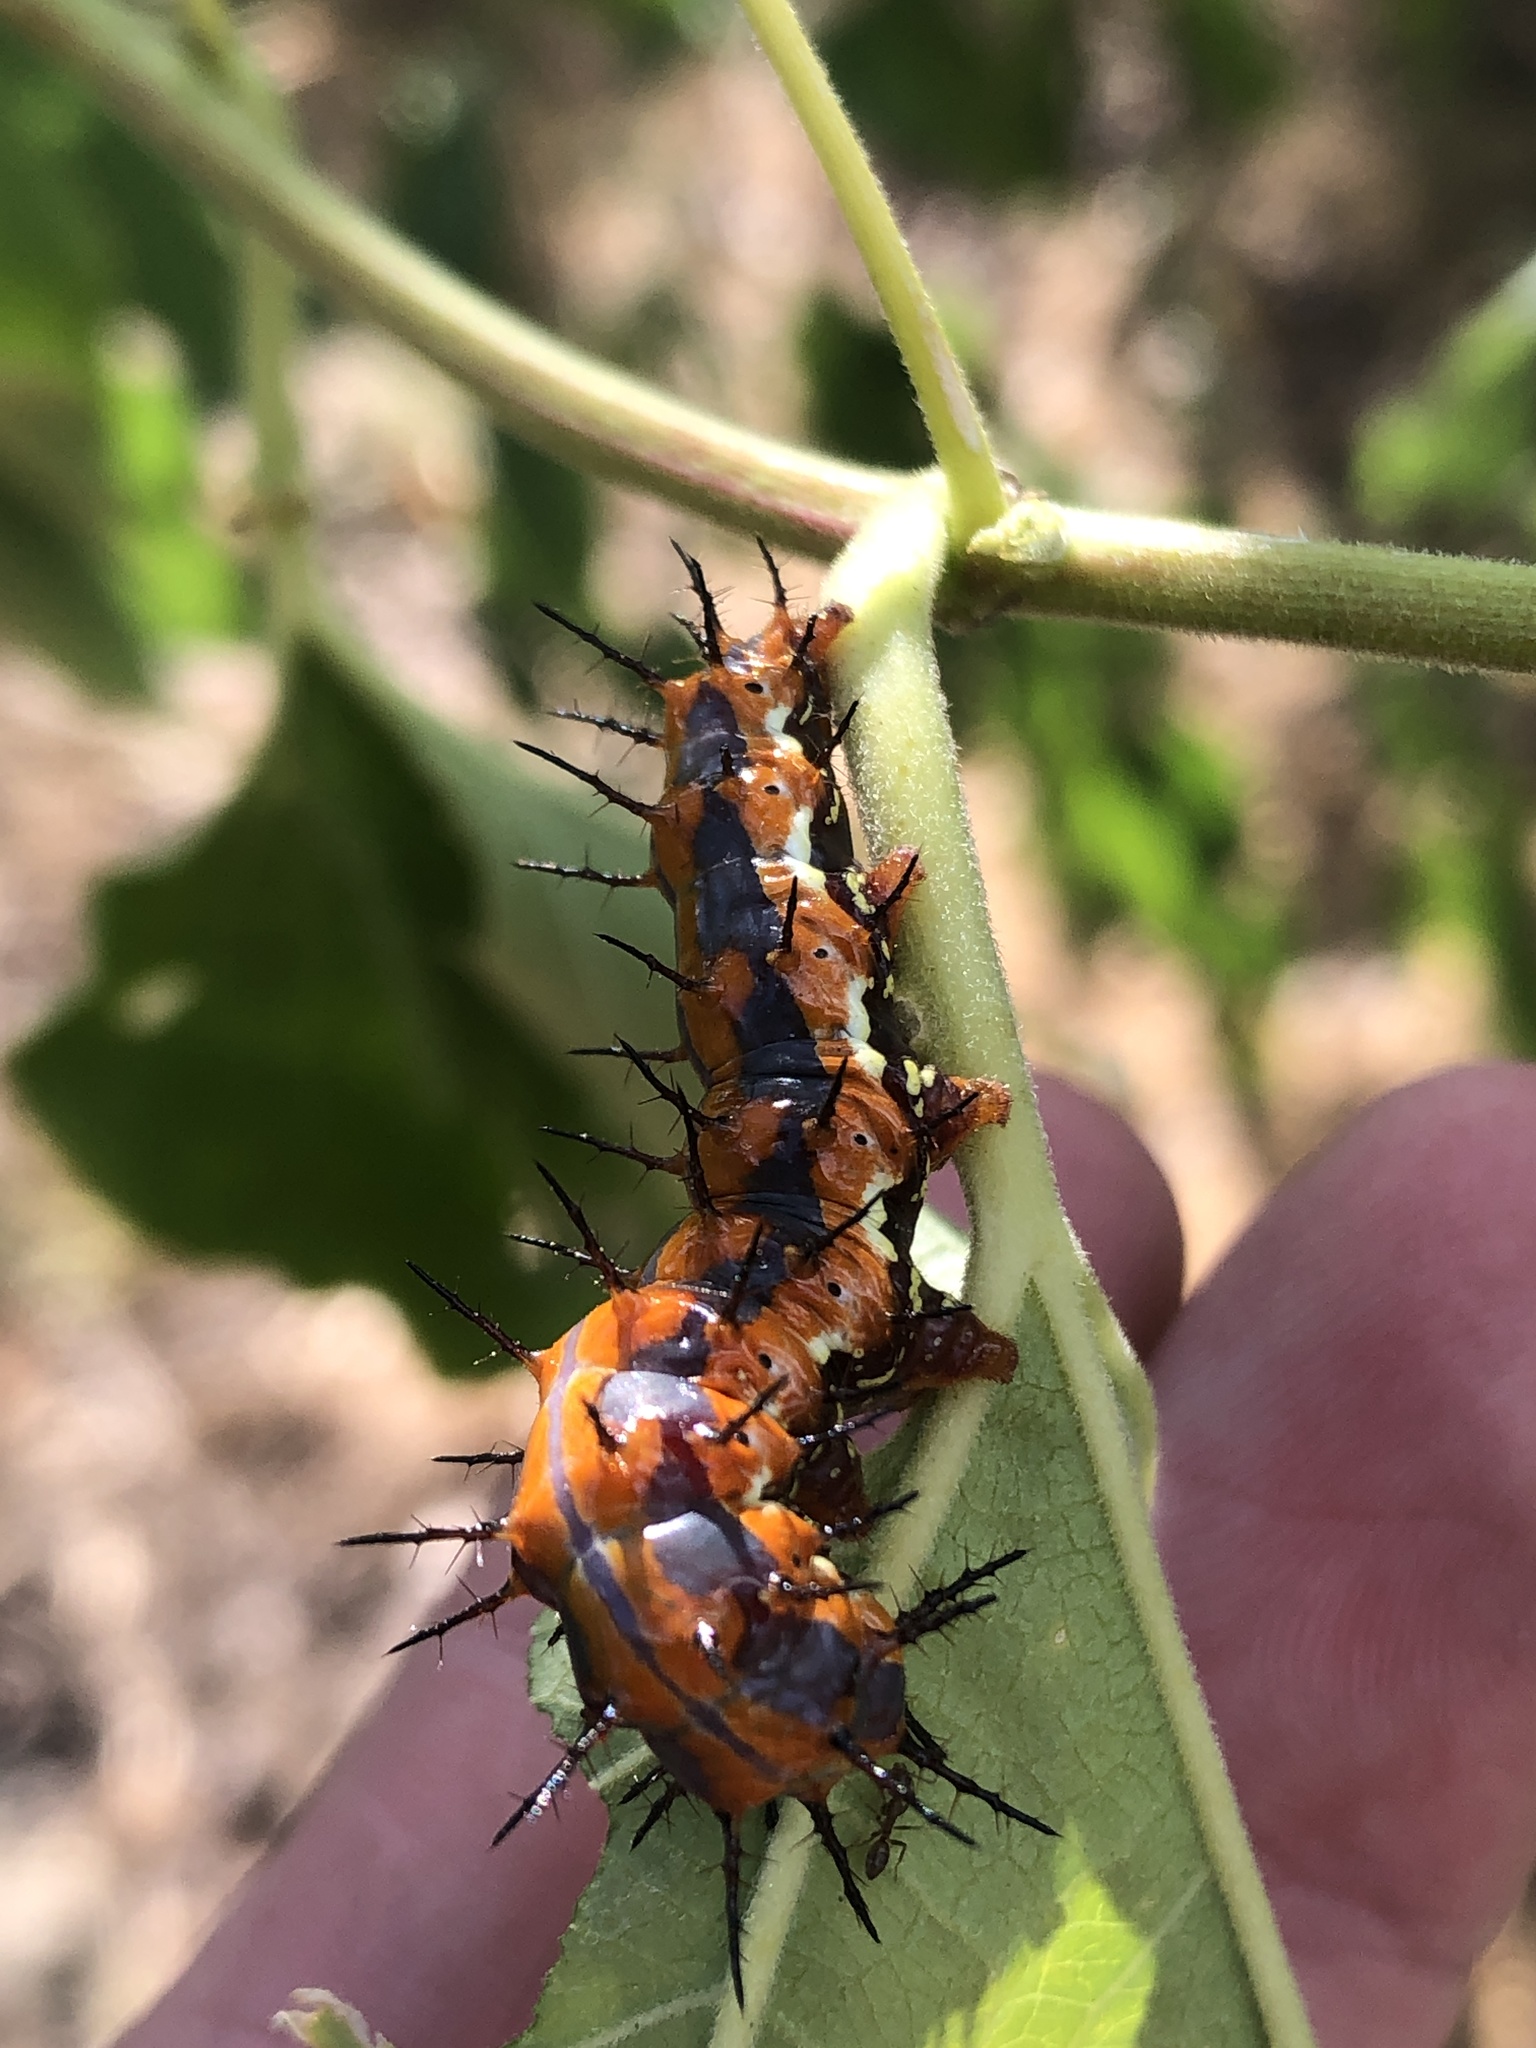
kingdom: Animalia
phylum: Arthropoda
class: Insecta
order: Lepidoptera
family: Nymphalidae
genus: Dione
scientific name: Dione vanillae
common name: Gulf fritillary
